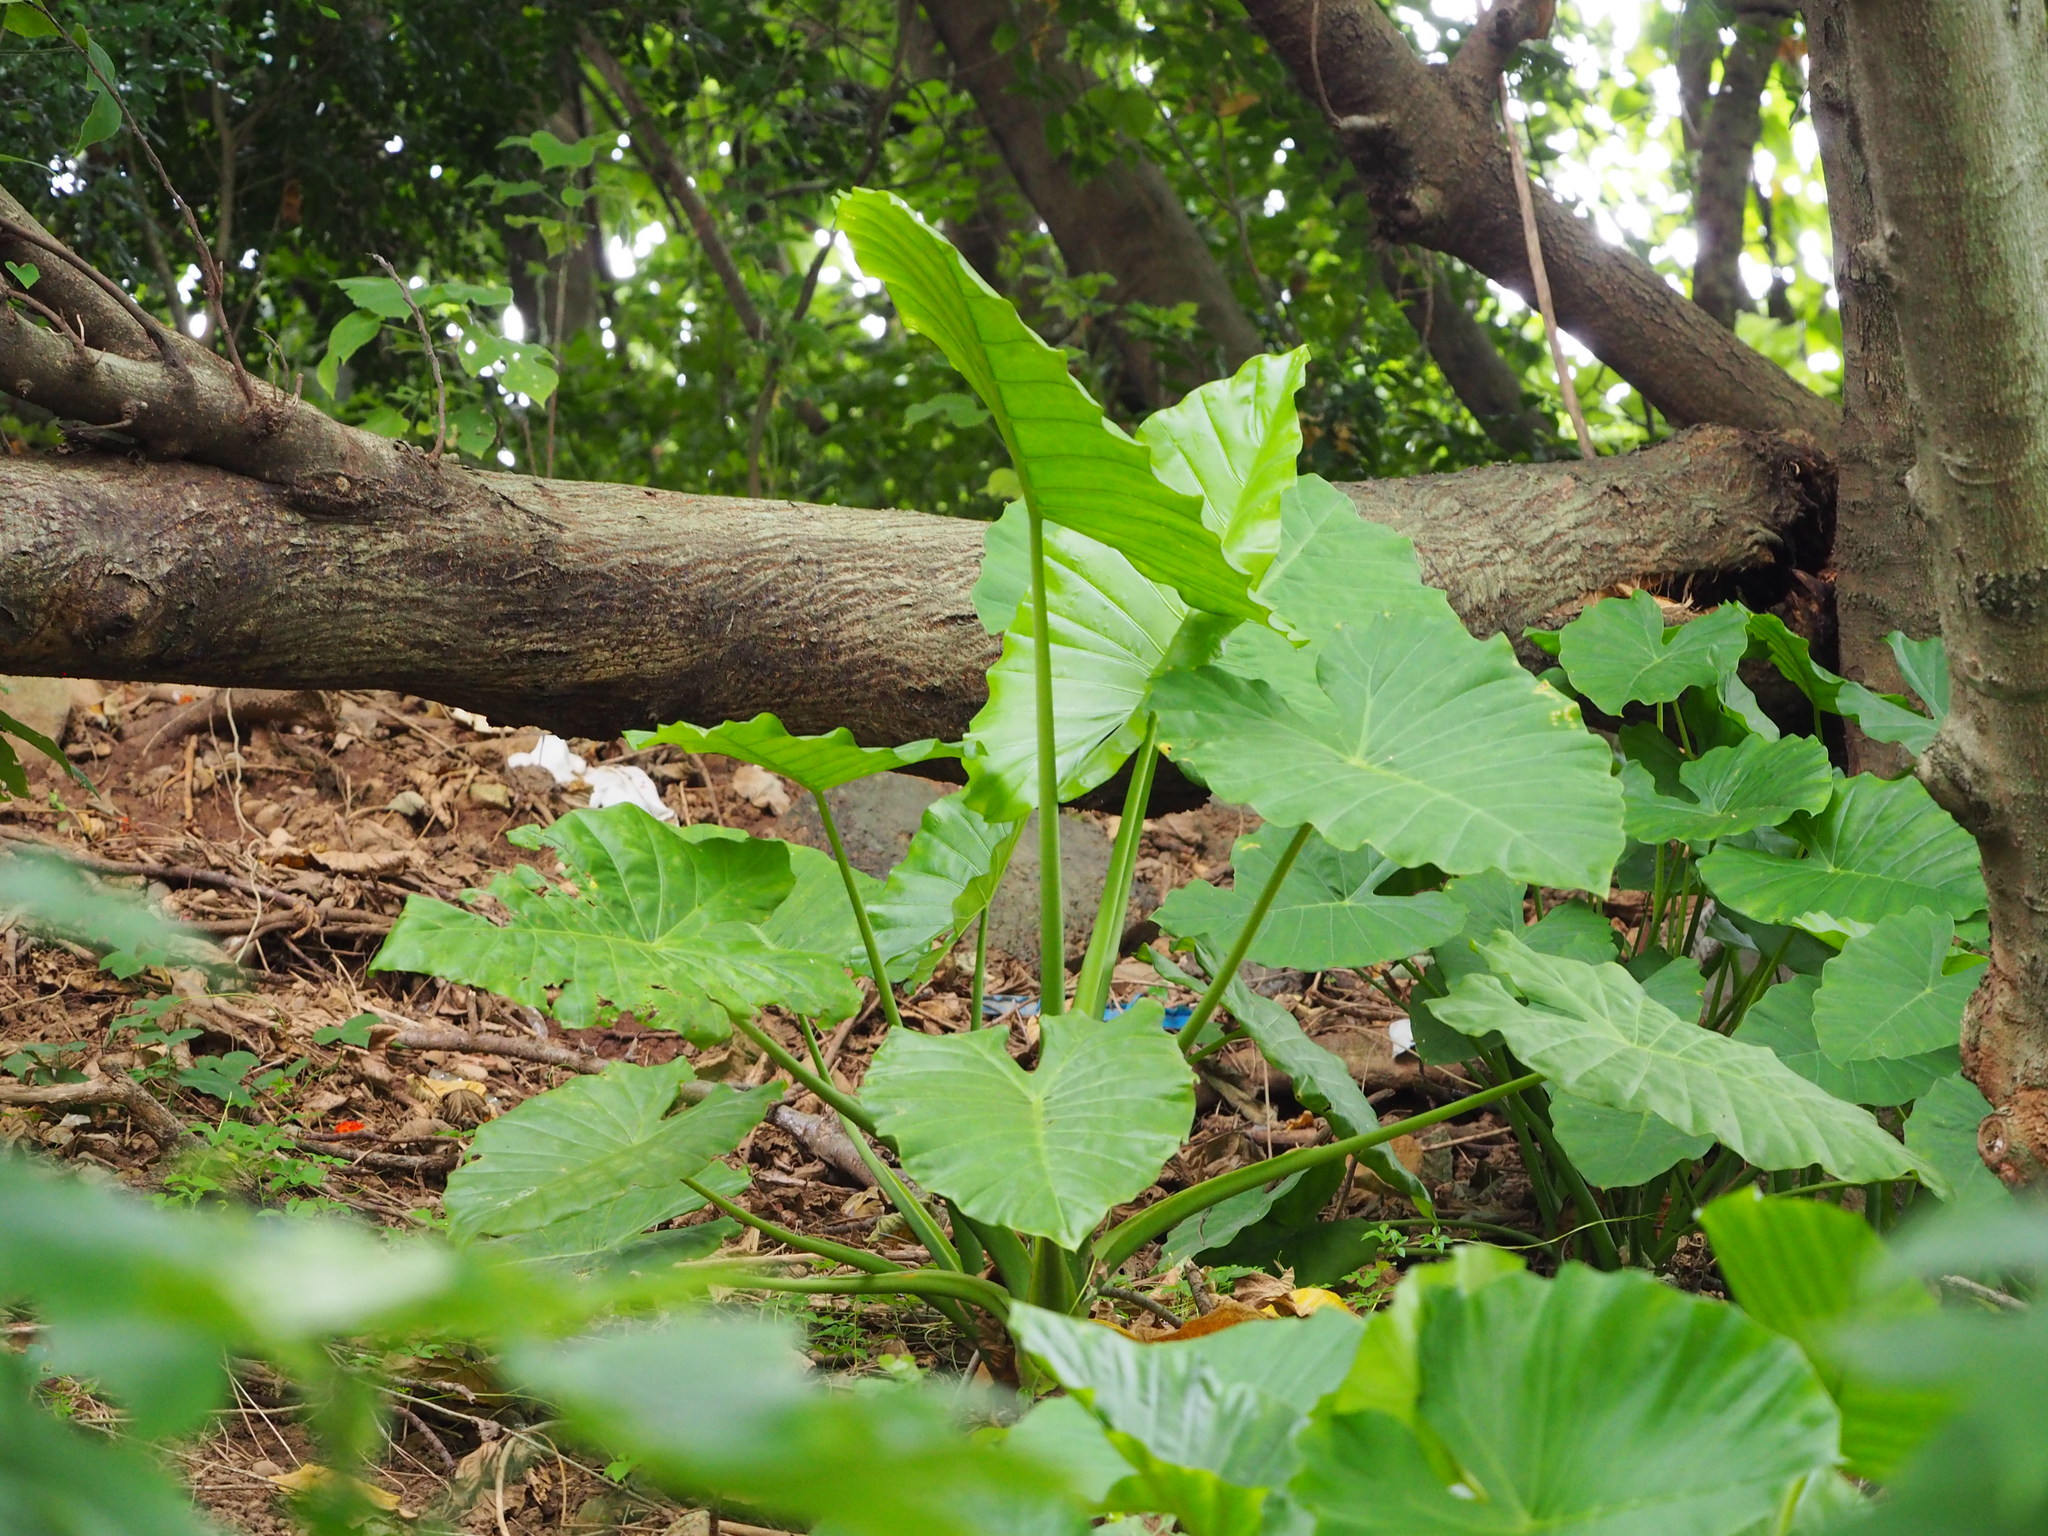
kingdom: Plantae
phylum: Tracheophyta
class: Liliopsida
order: Alismatales
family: Araceae
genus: Alocasia
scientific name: Alocasia odora
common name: Asian taro
